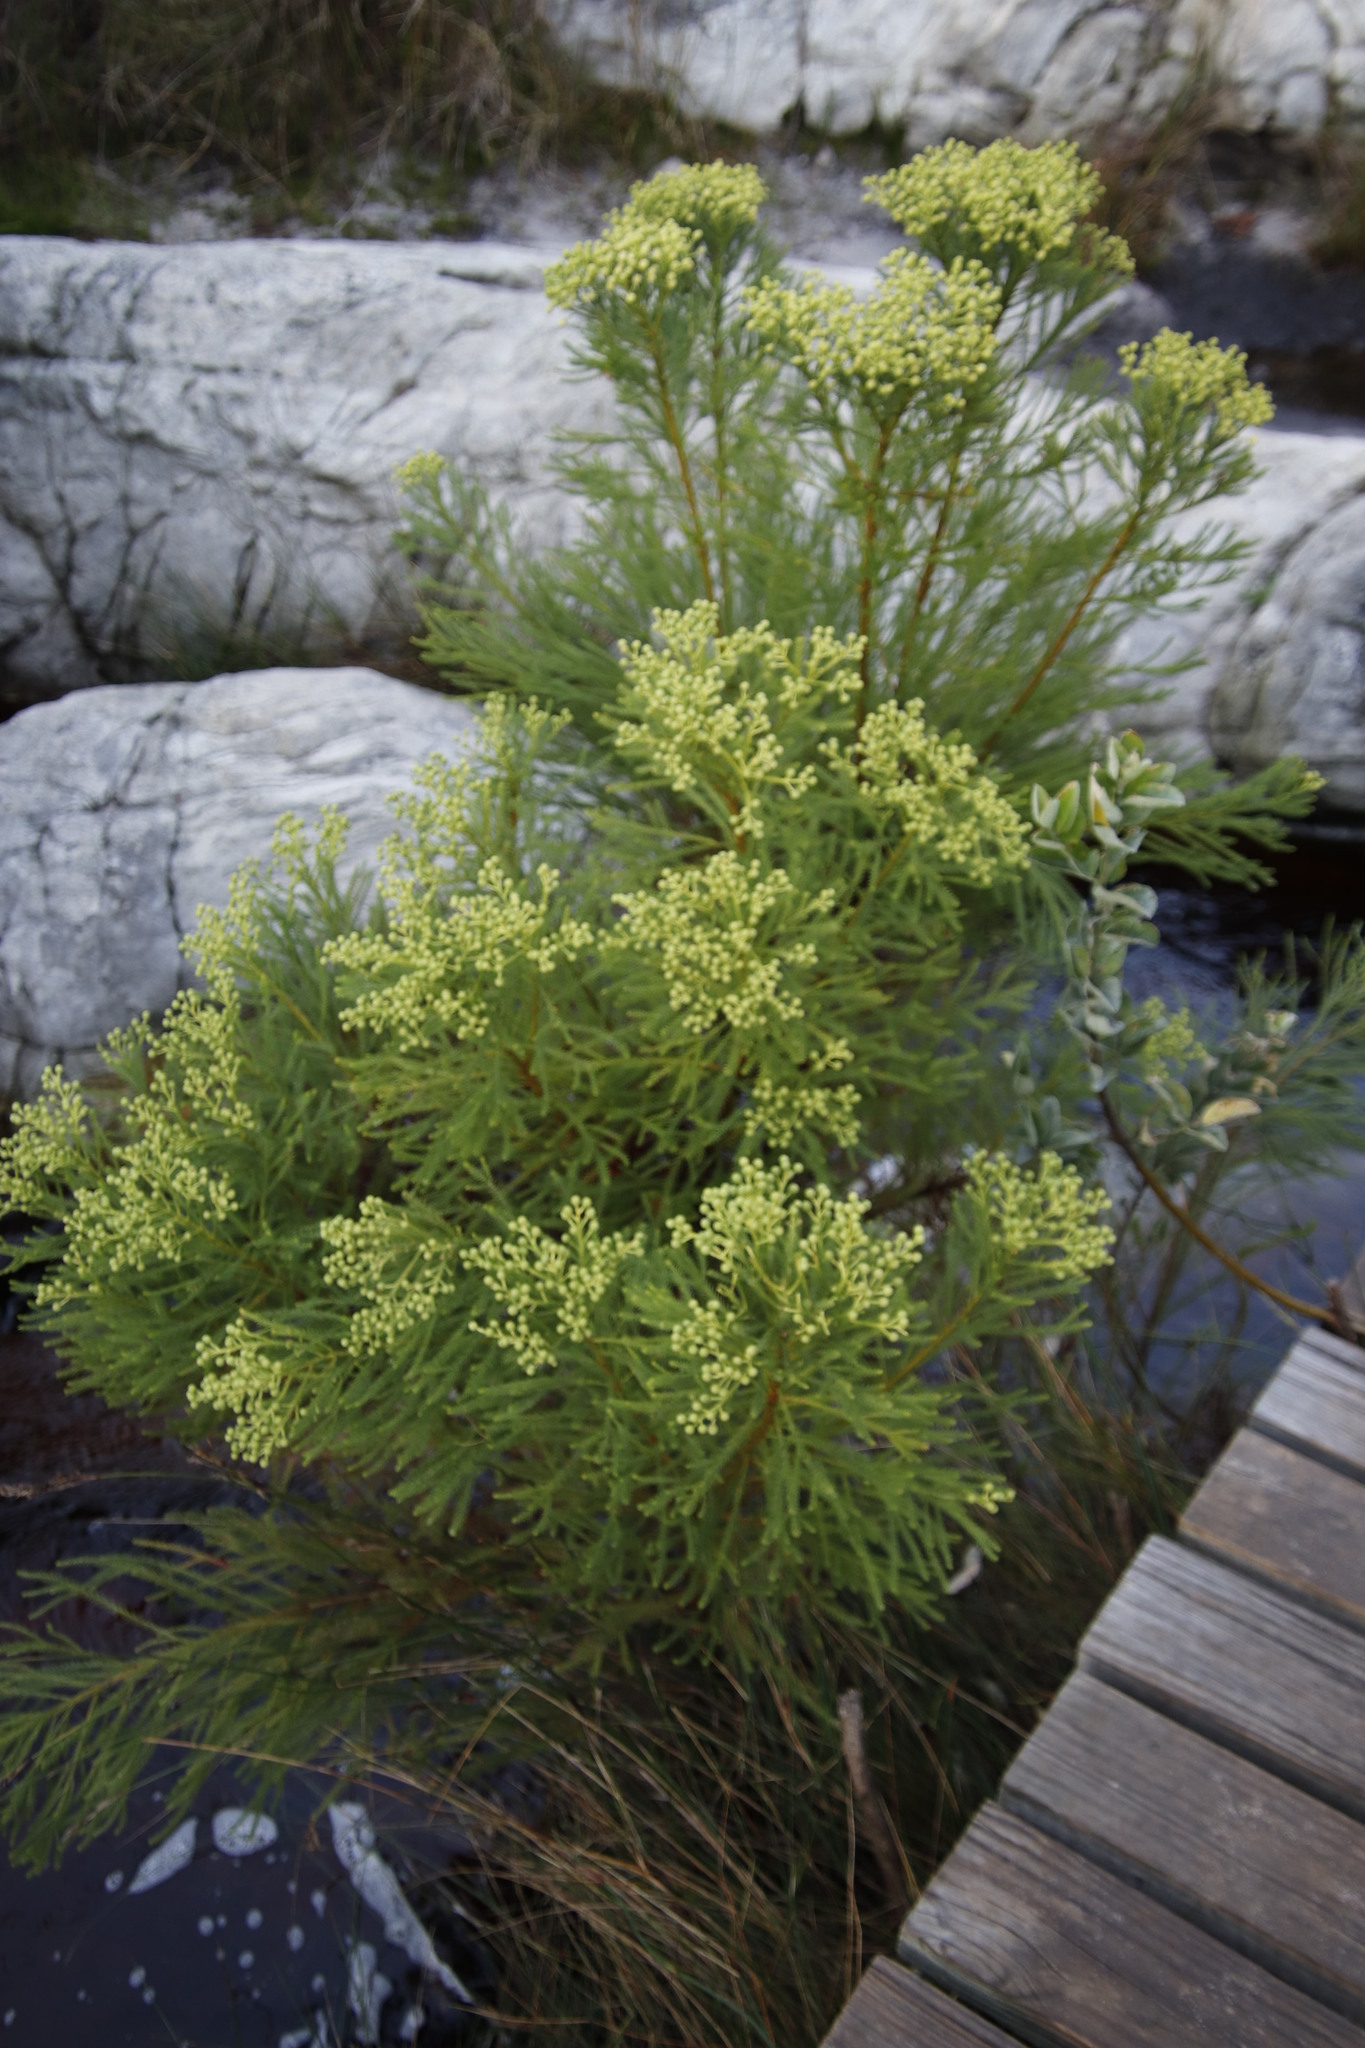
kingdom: Plantae
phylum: Tracheophyta
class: Magnoliopsida
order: Bruniales
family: Bruniaceae
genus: Berzelia
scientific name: Berzelia lanuginosa
